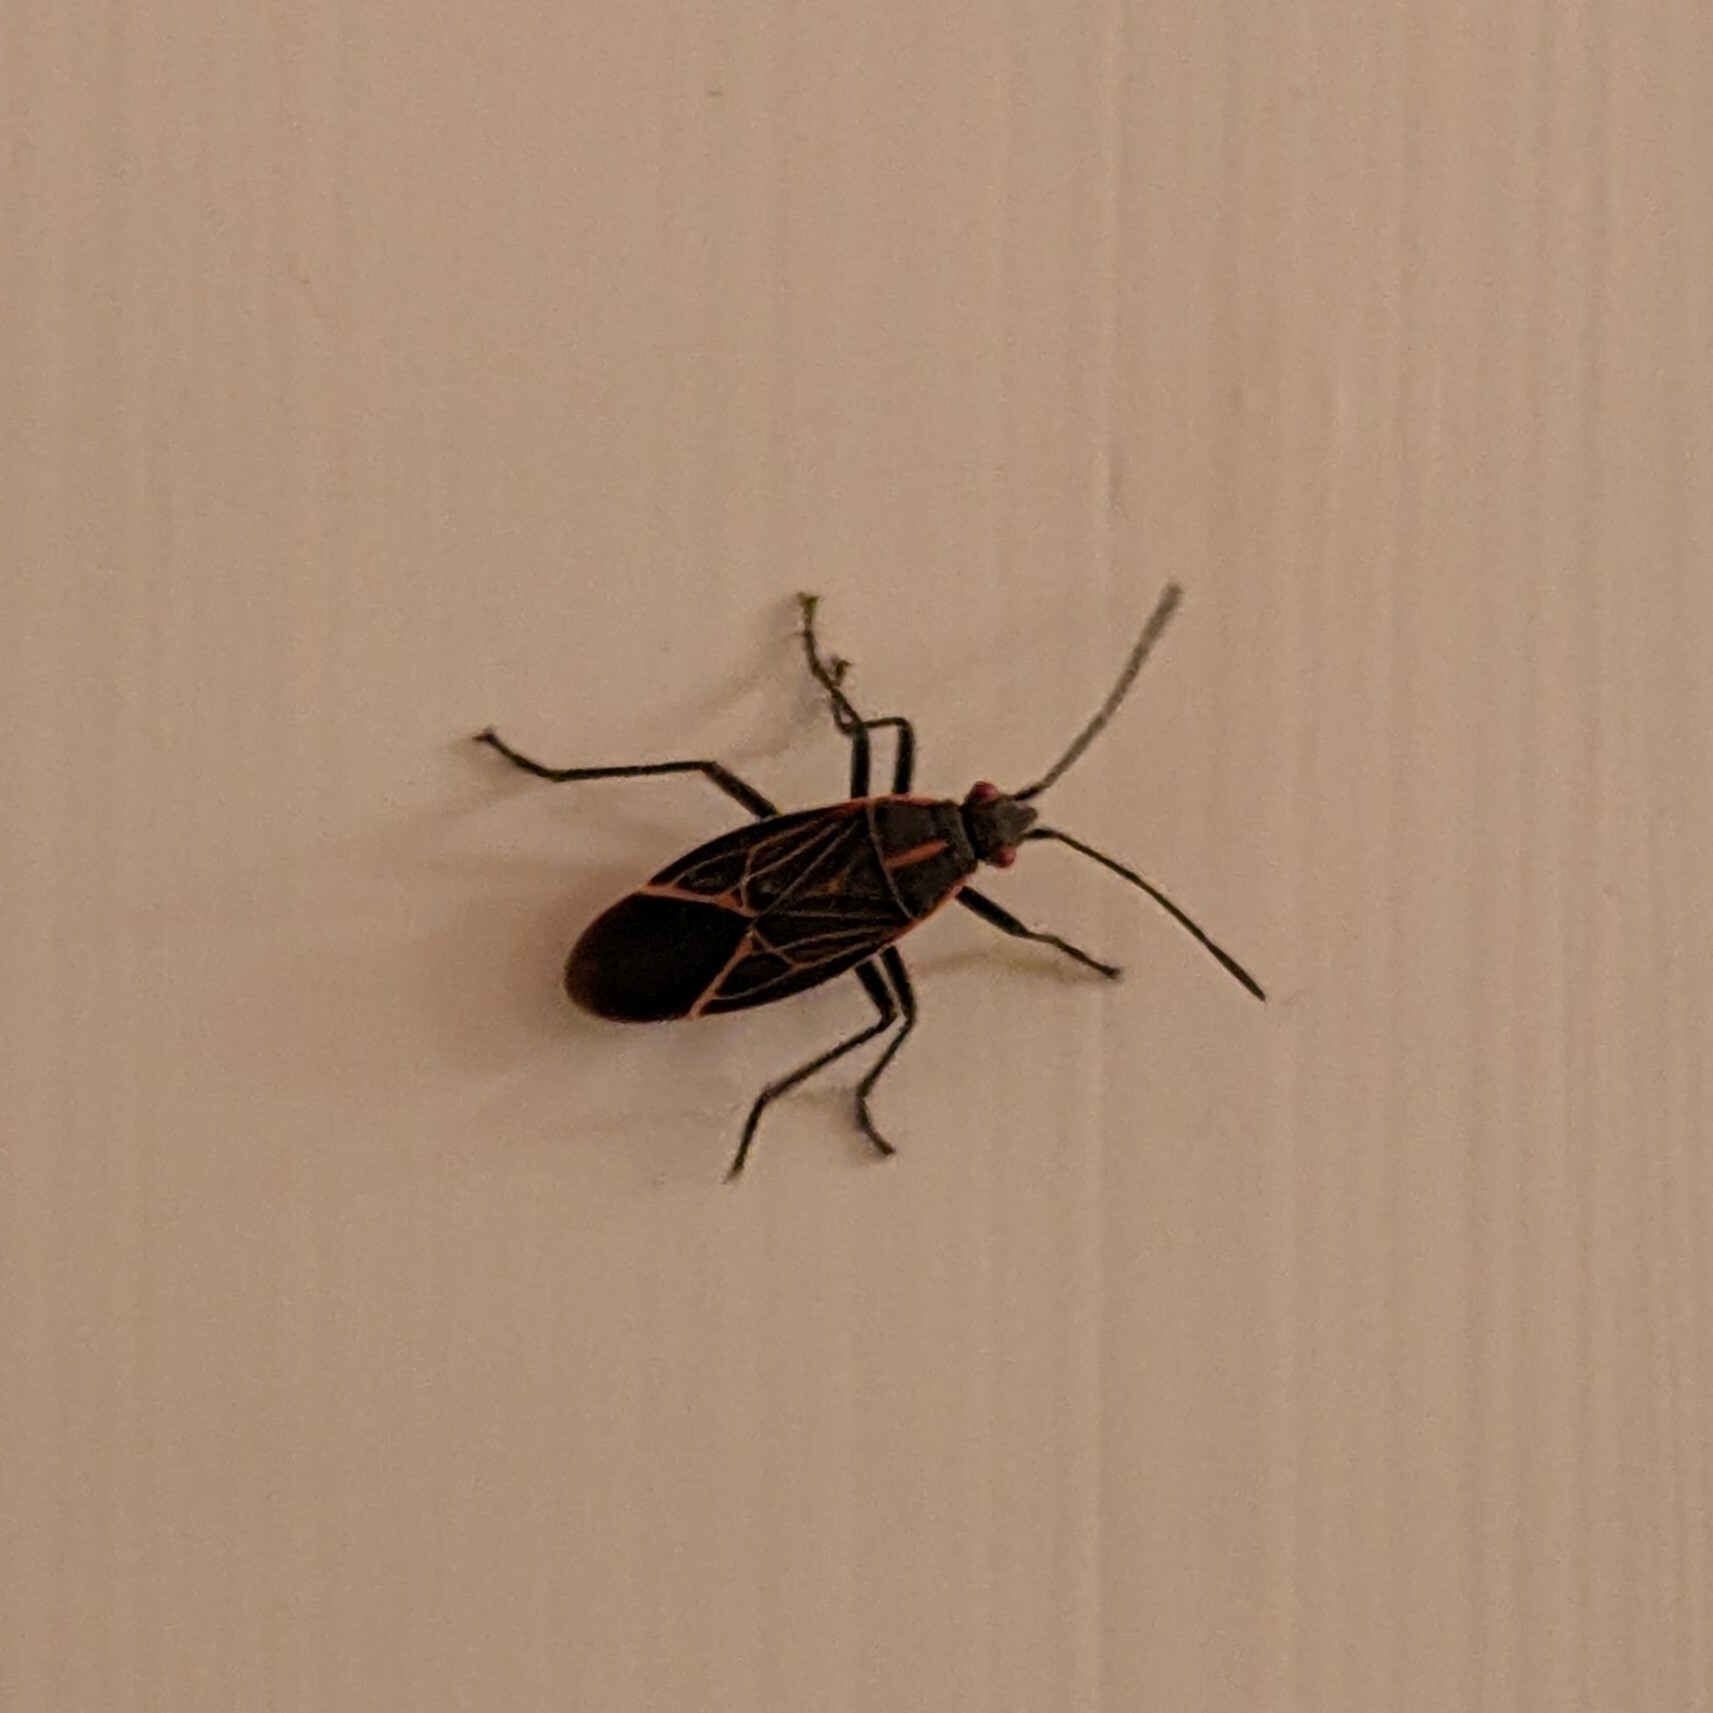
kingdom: Animalia
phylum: Arthropoda
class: Insecta
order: Hemiptera
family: Rhopalidae
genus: Boisea
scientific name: Boisea rubrolineata
